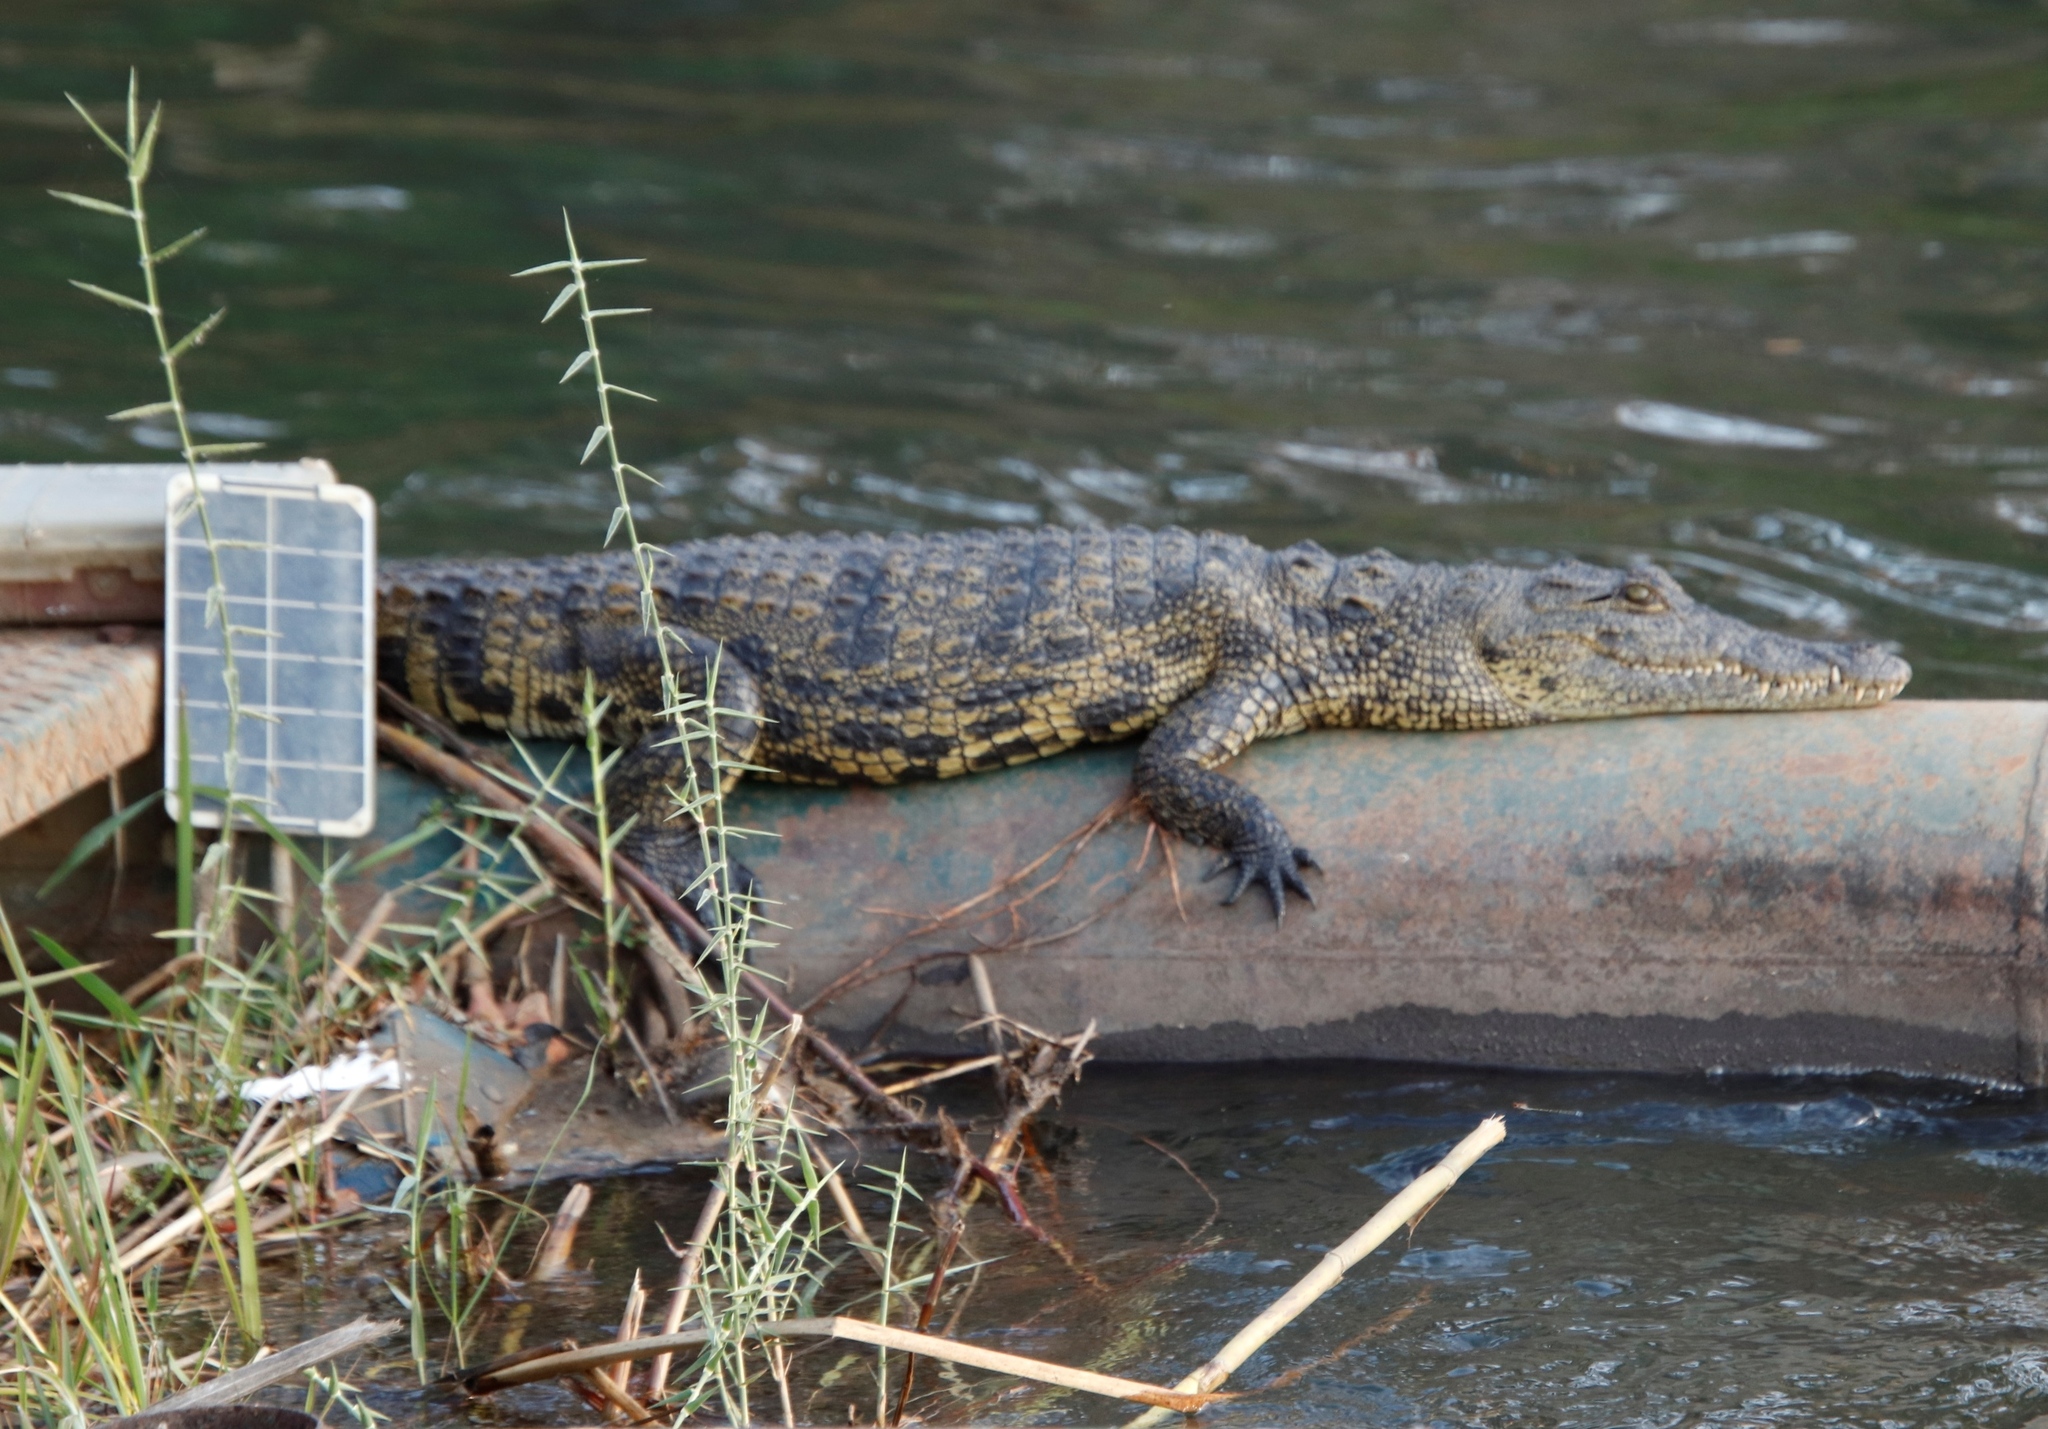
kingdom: Plantae
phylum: Tracheophyta
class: Liliopsida
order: Poales
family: Poaceae
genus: Phragmites
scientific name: Phragmites mauritianus
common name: Reed grass
